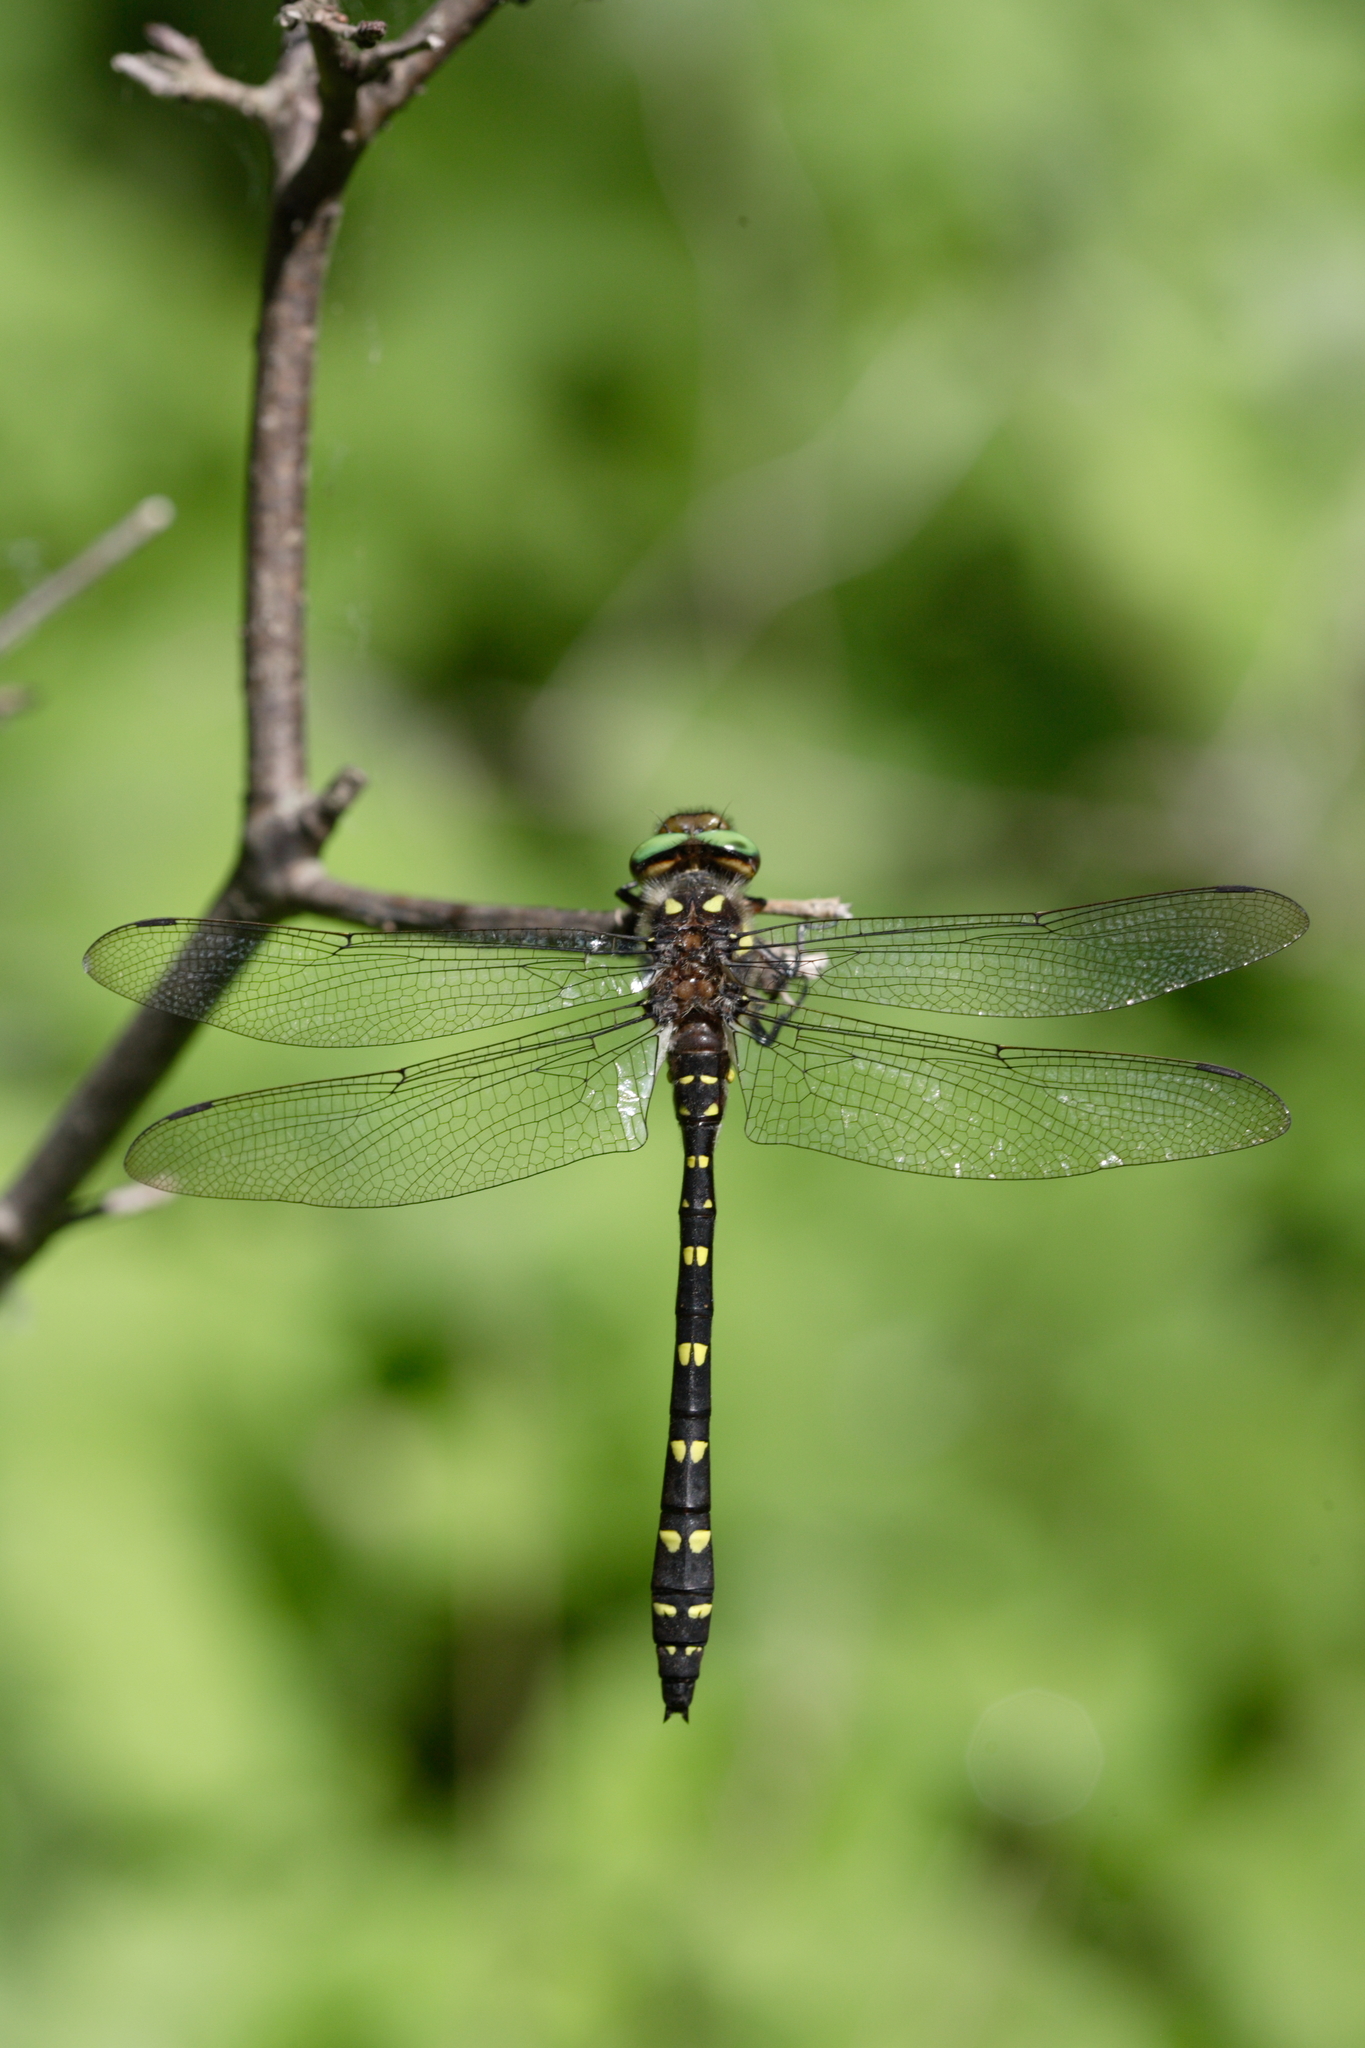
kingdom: Animalia
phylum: Arthropoda
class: Insecta
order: Odonata
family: Cordulegastridae
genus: Cordulegaster
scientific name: Cordulegaster maculata
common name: Twin-spotted spiketail
